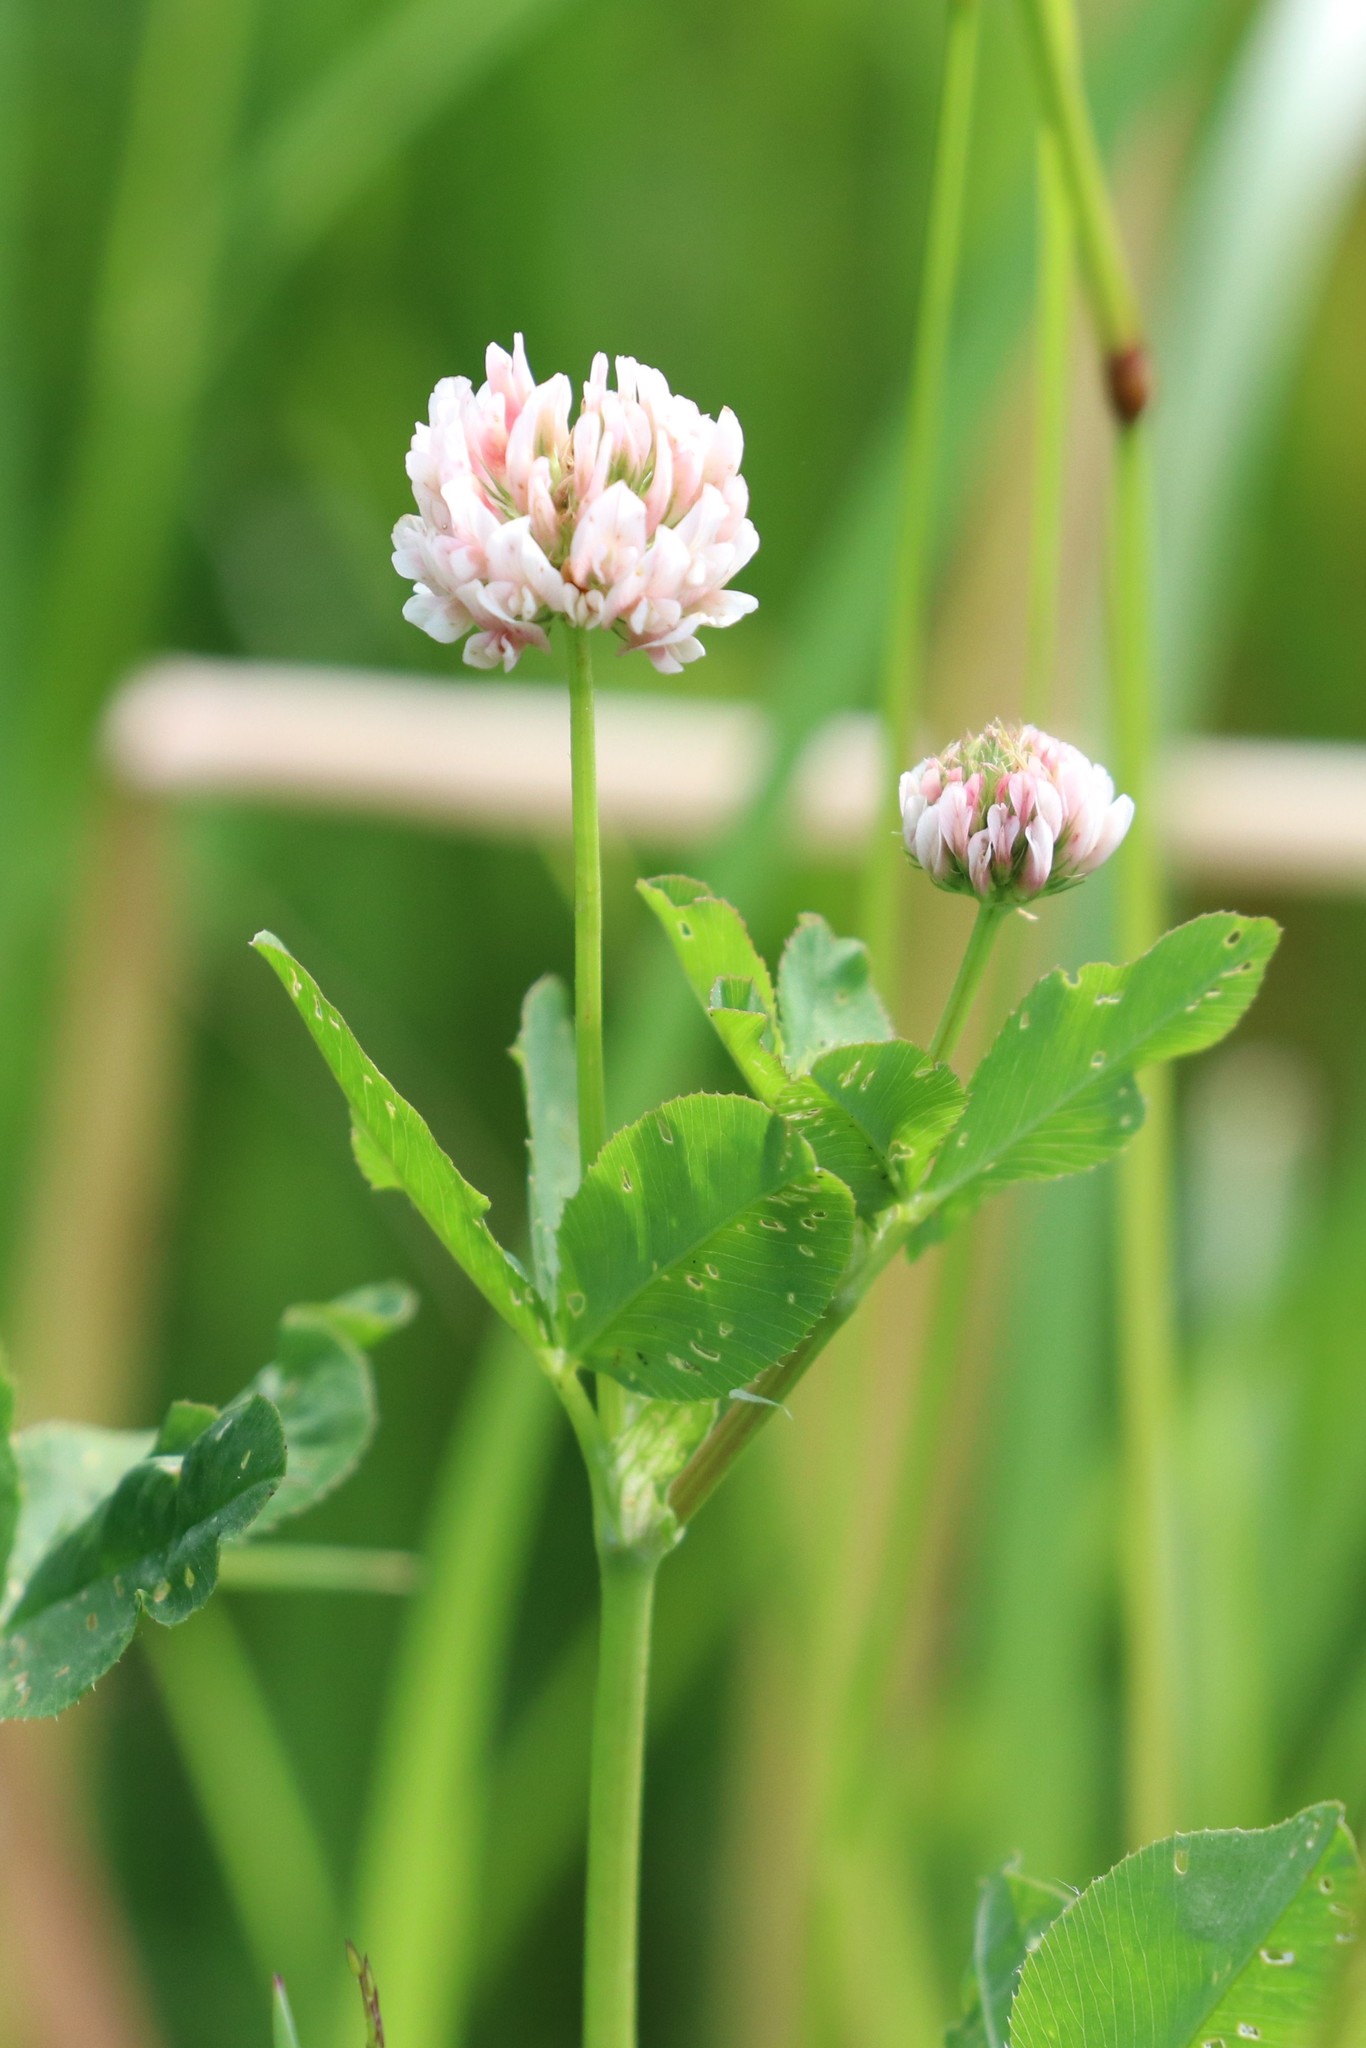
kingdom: Plantae
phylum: Tracheophyta
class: Magnoliopsida
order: Fabales
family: Fabaceae
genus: Trifolium
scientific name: Trifolium hybridum
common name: Alsike clover
